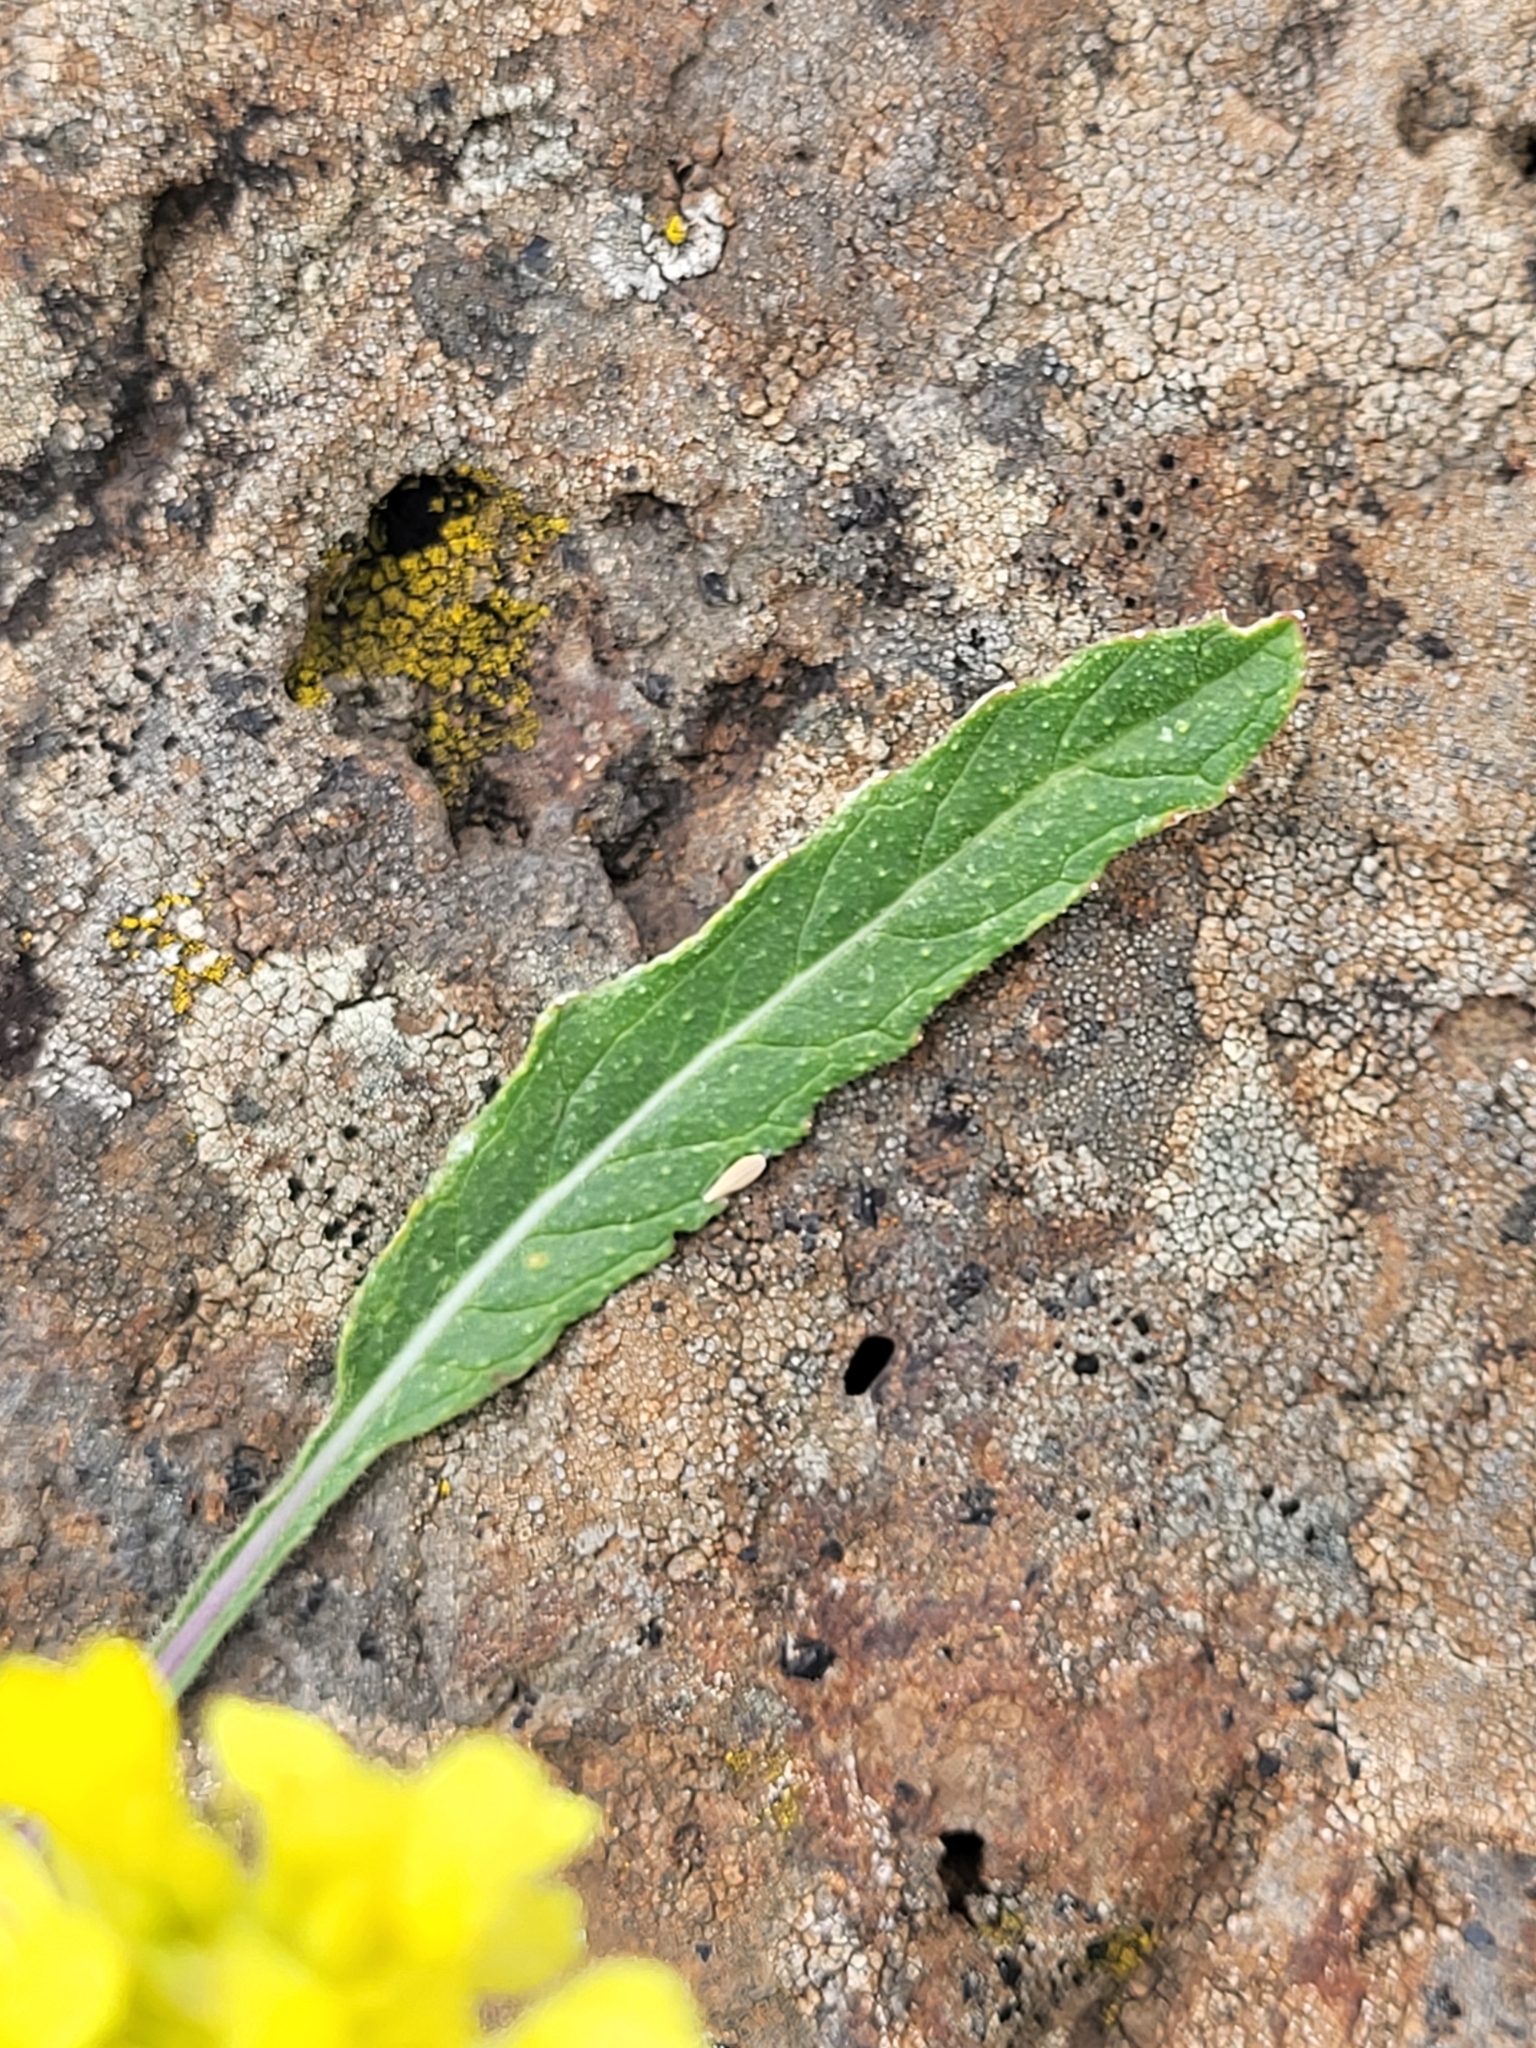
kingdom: Plantae
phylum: Tracheophyta
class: Magnoliopsida
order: Brassicales
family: Brassicaceae
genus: Hirschfeldia
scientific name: Hirschfeldia incana
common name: Hoary mustard
